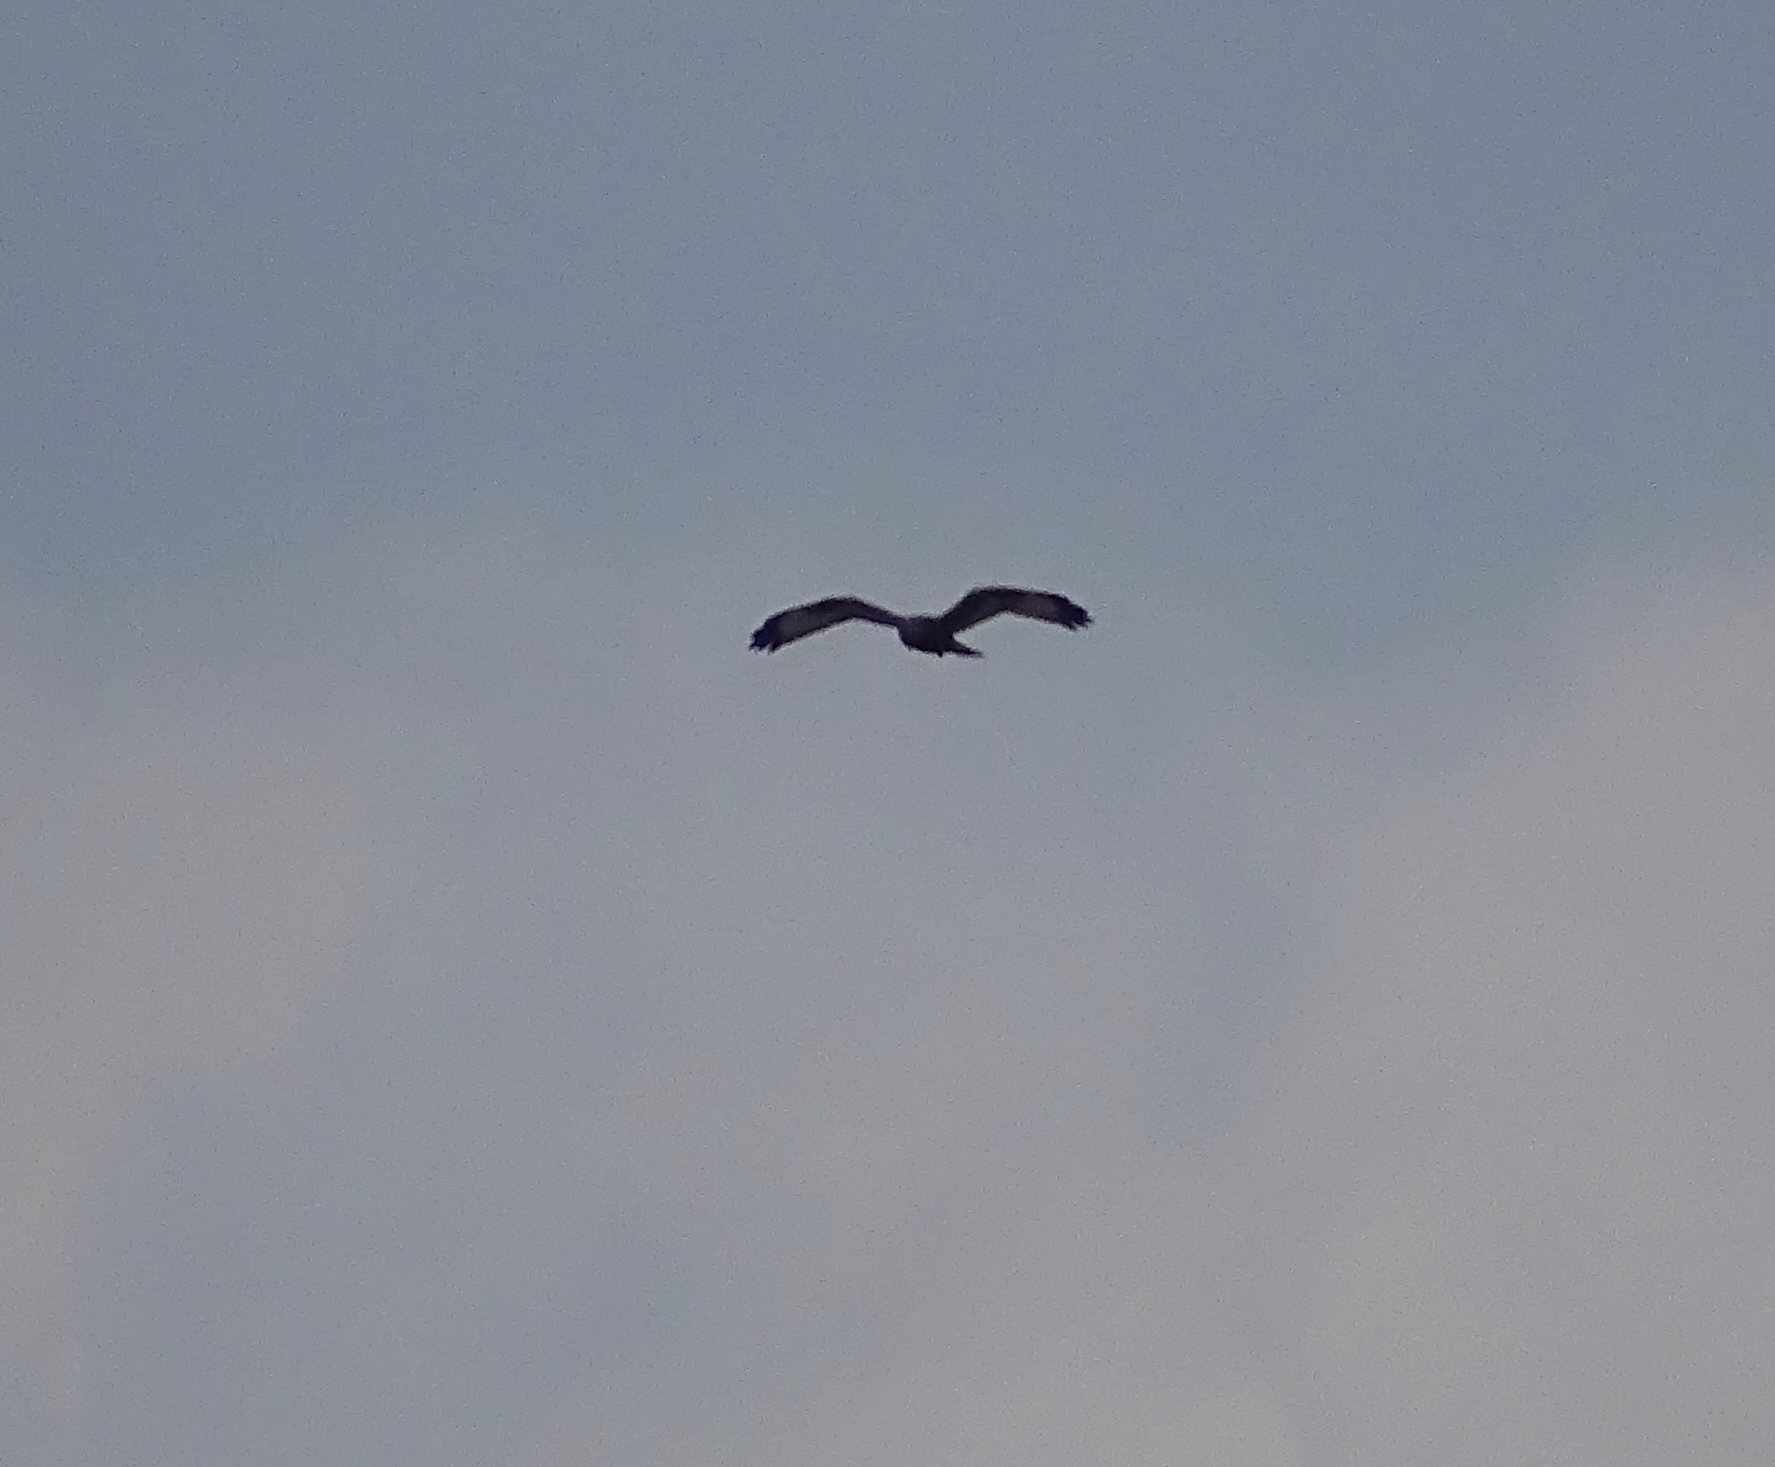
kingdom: Animalia
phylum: Chordata
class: Aves
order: Accipitriformes
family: Accipitridae
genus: Buteo
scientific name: Buteo lagopus
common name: Rough-legged buzzard
